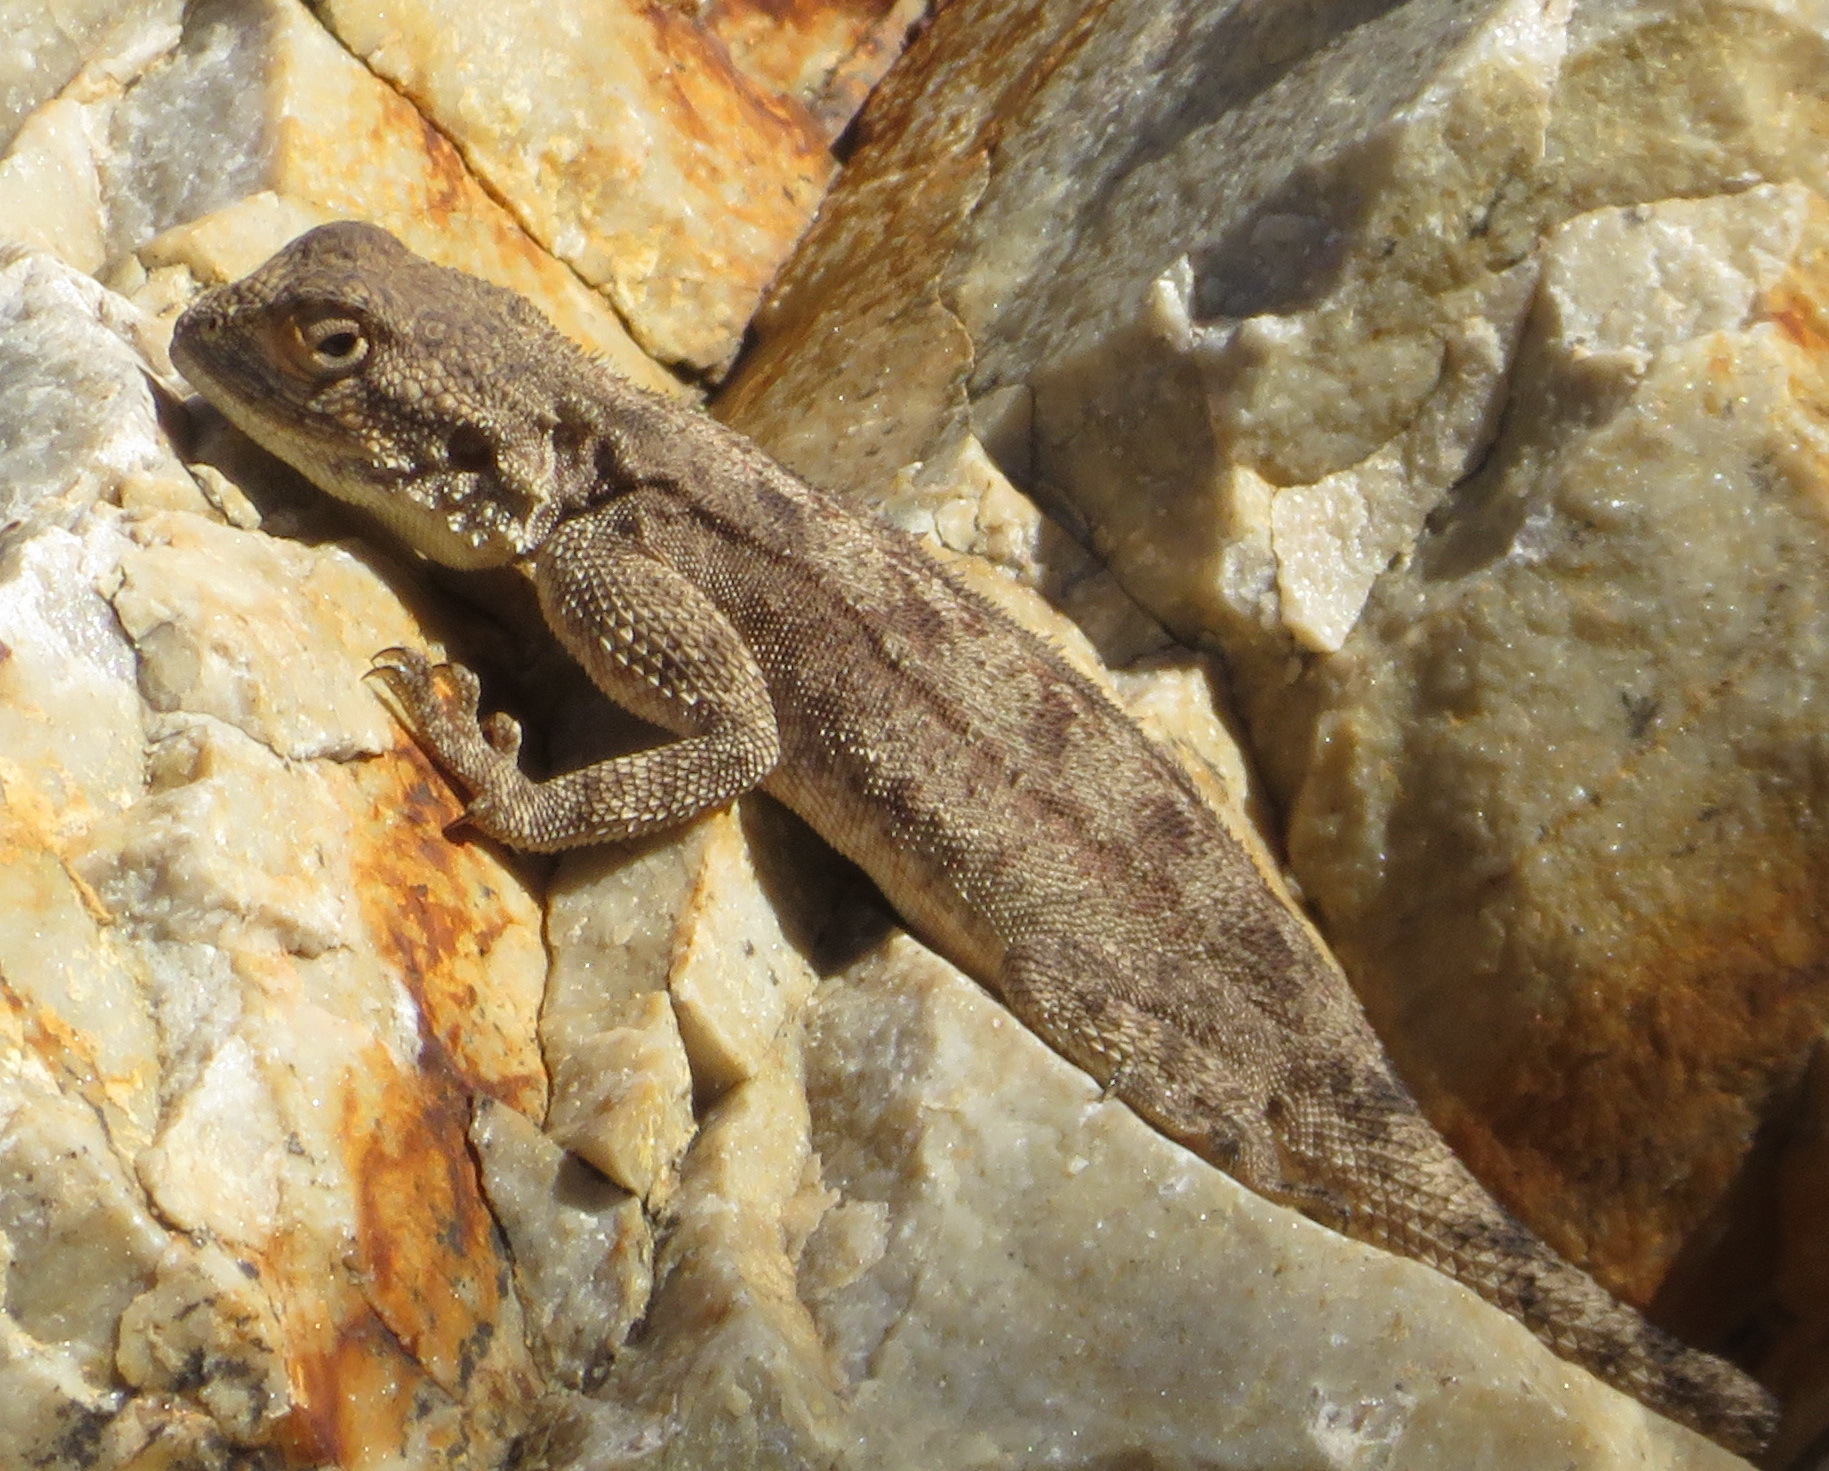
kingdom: Animalia
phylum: Chordata
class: Squamata
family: Agamidae
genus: Agama
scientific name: Agama atra
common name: Southern african rock agama
